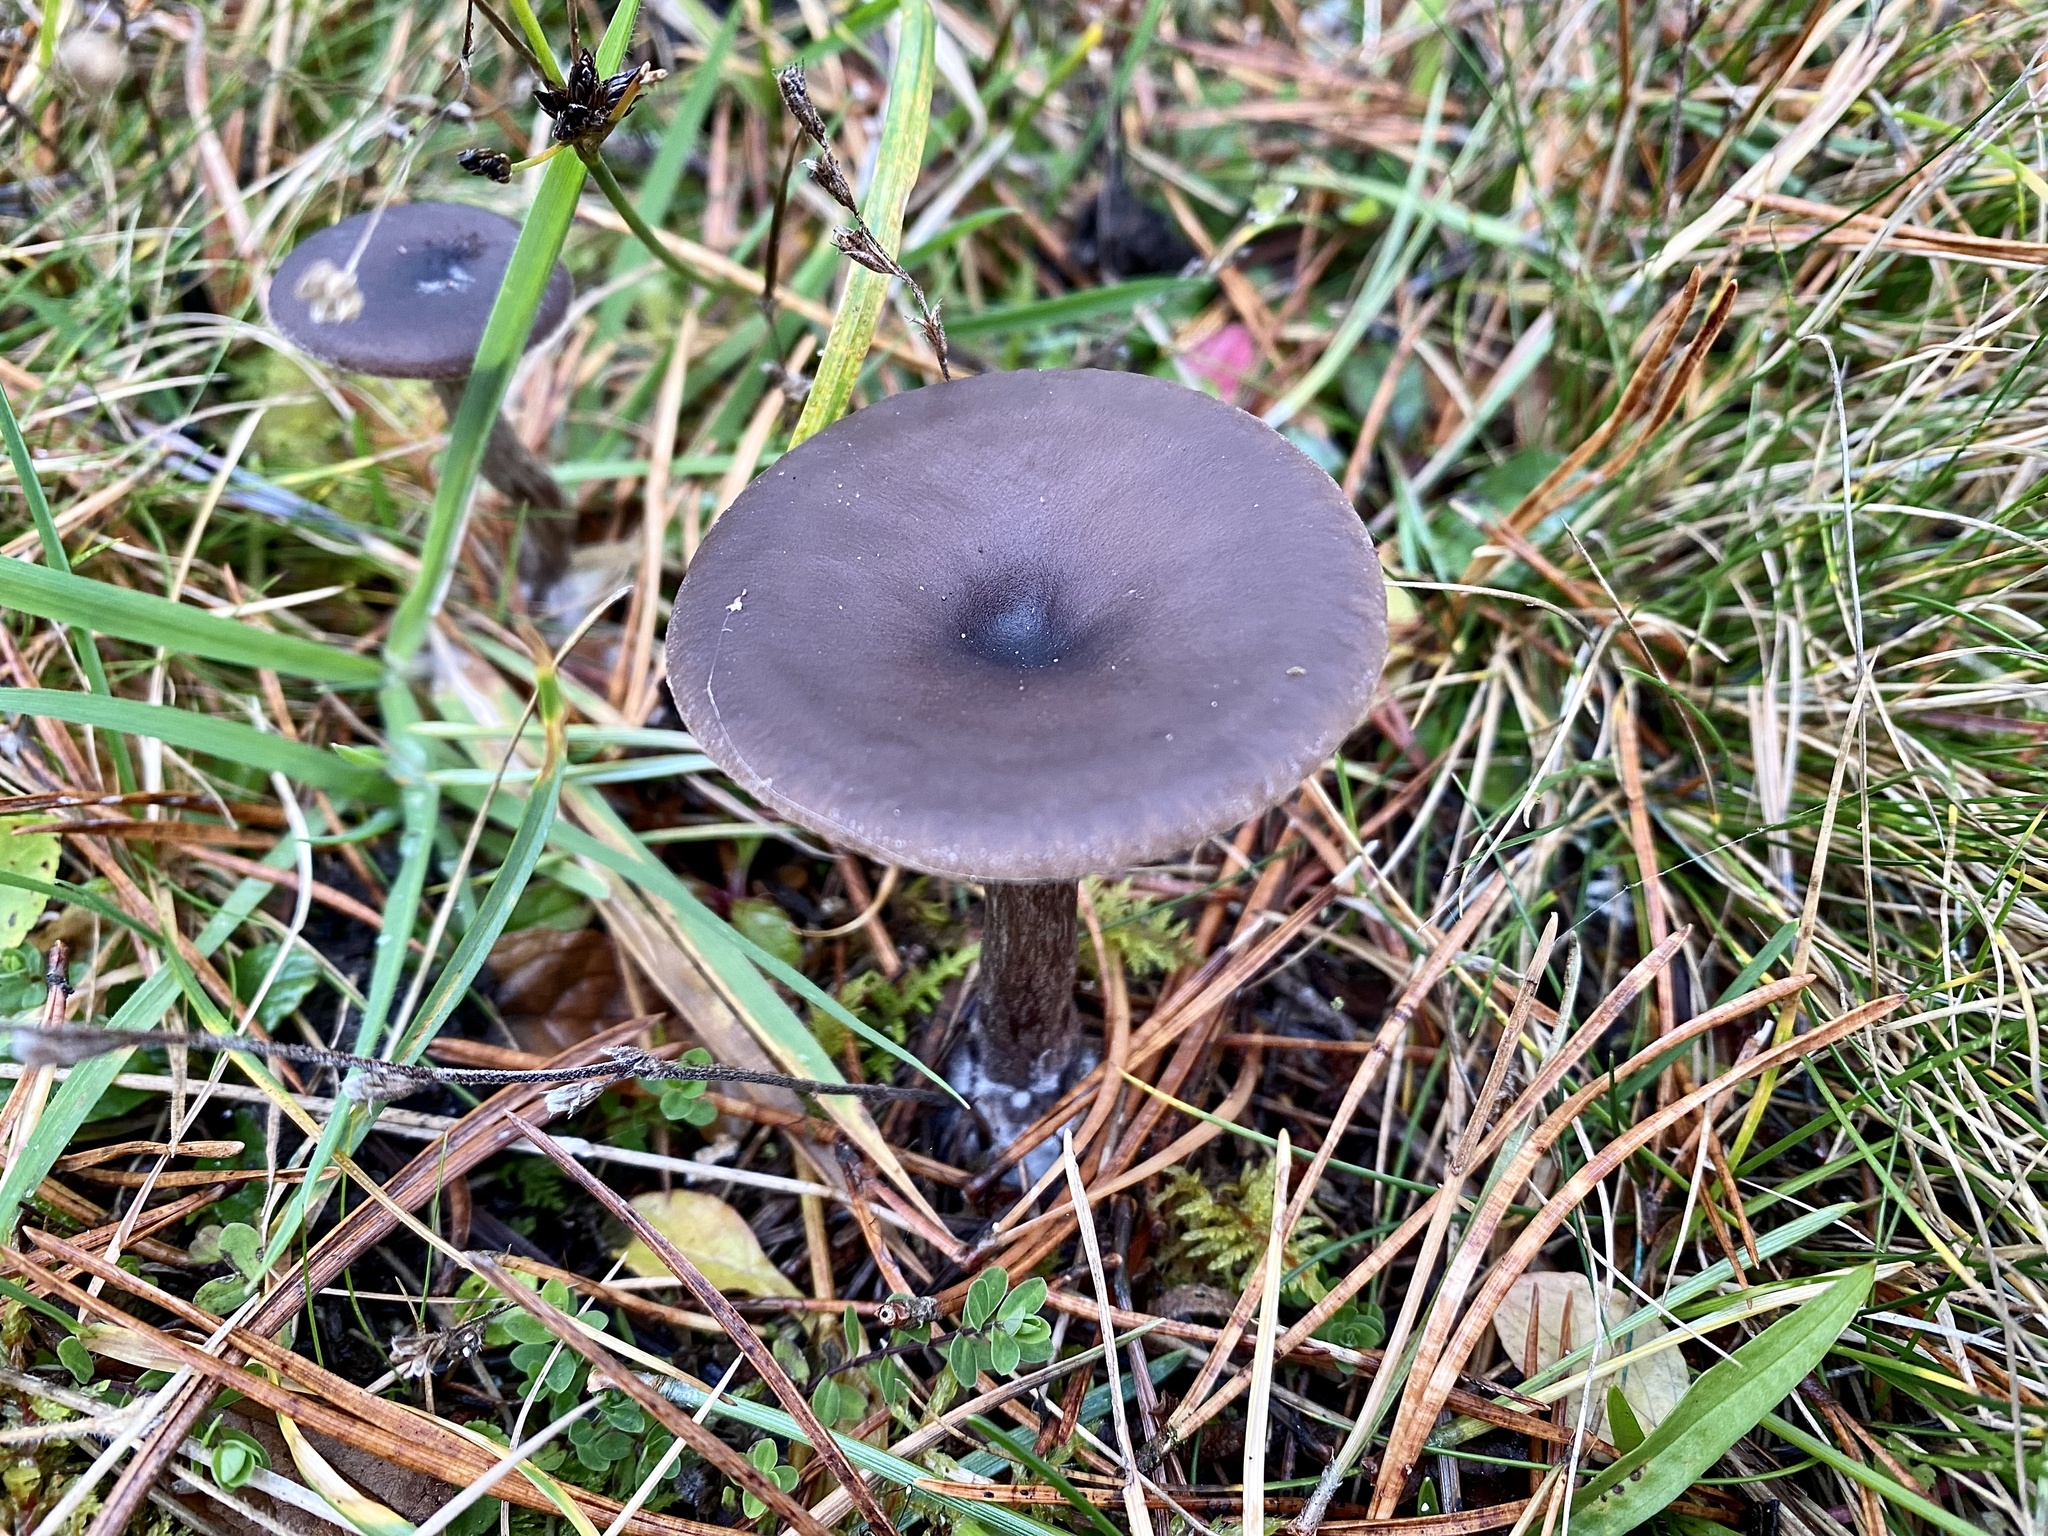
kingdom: Fungi
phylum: Basidiomycota
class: Agaricomycetes
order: Agaricales
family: Pseudoclitocybaceae
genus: Pseudoclitocybe
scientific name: Pseudoclitocybe cyathiformis
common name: Goblet
